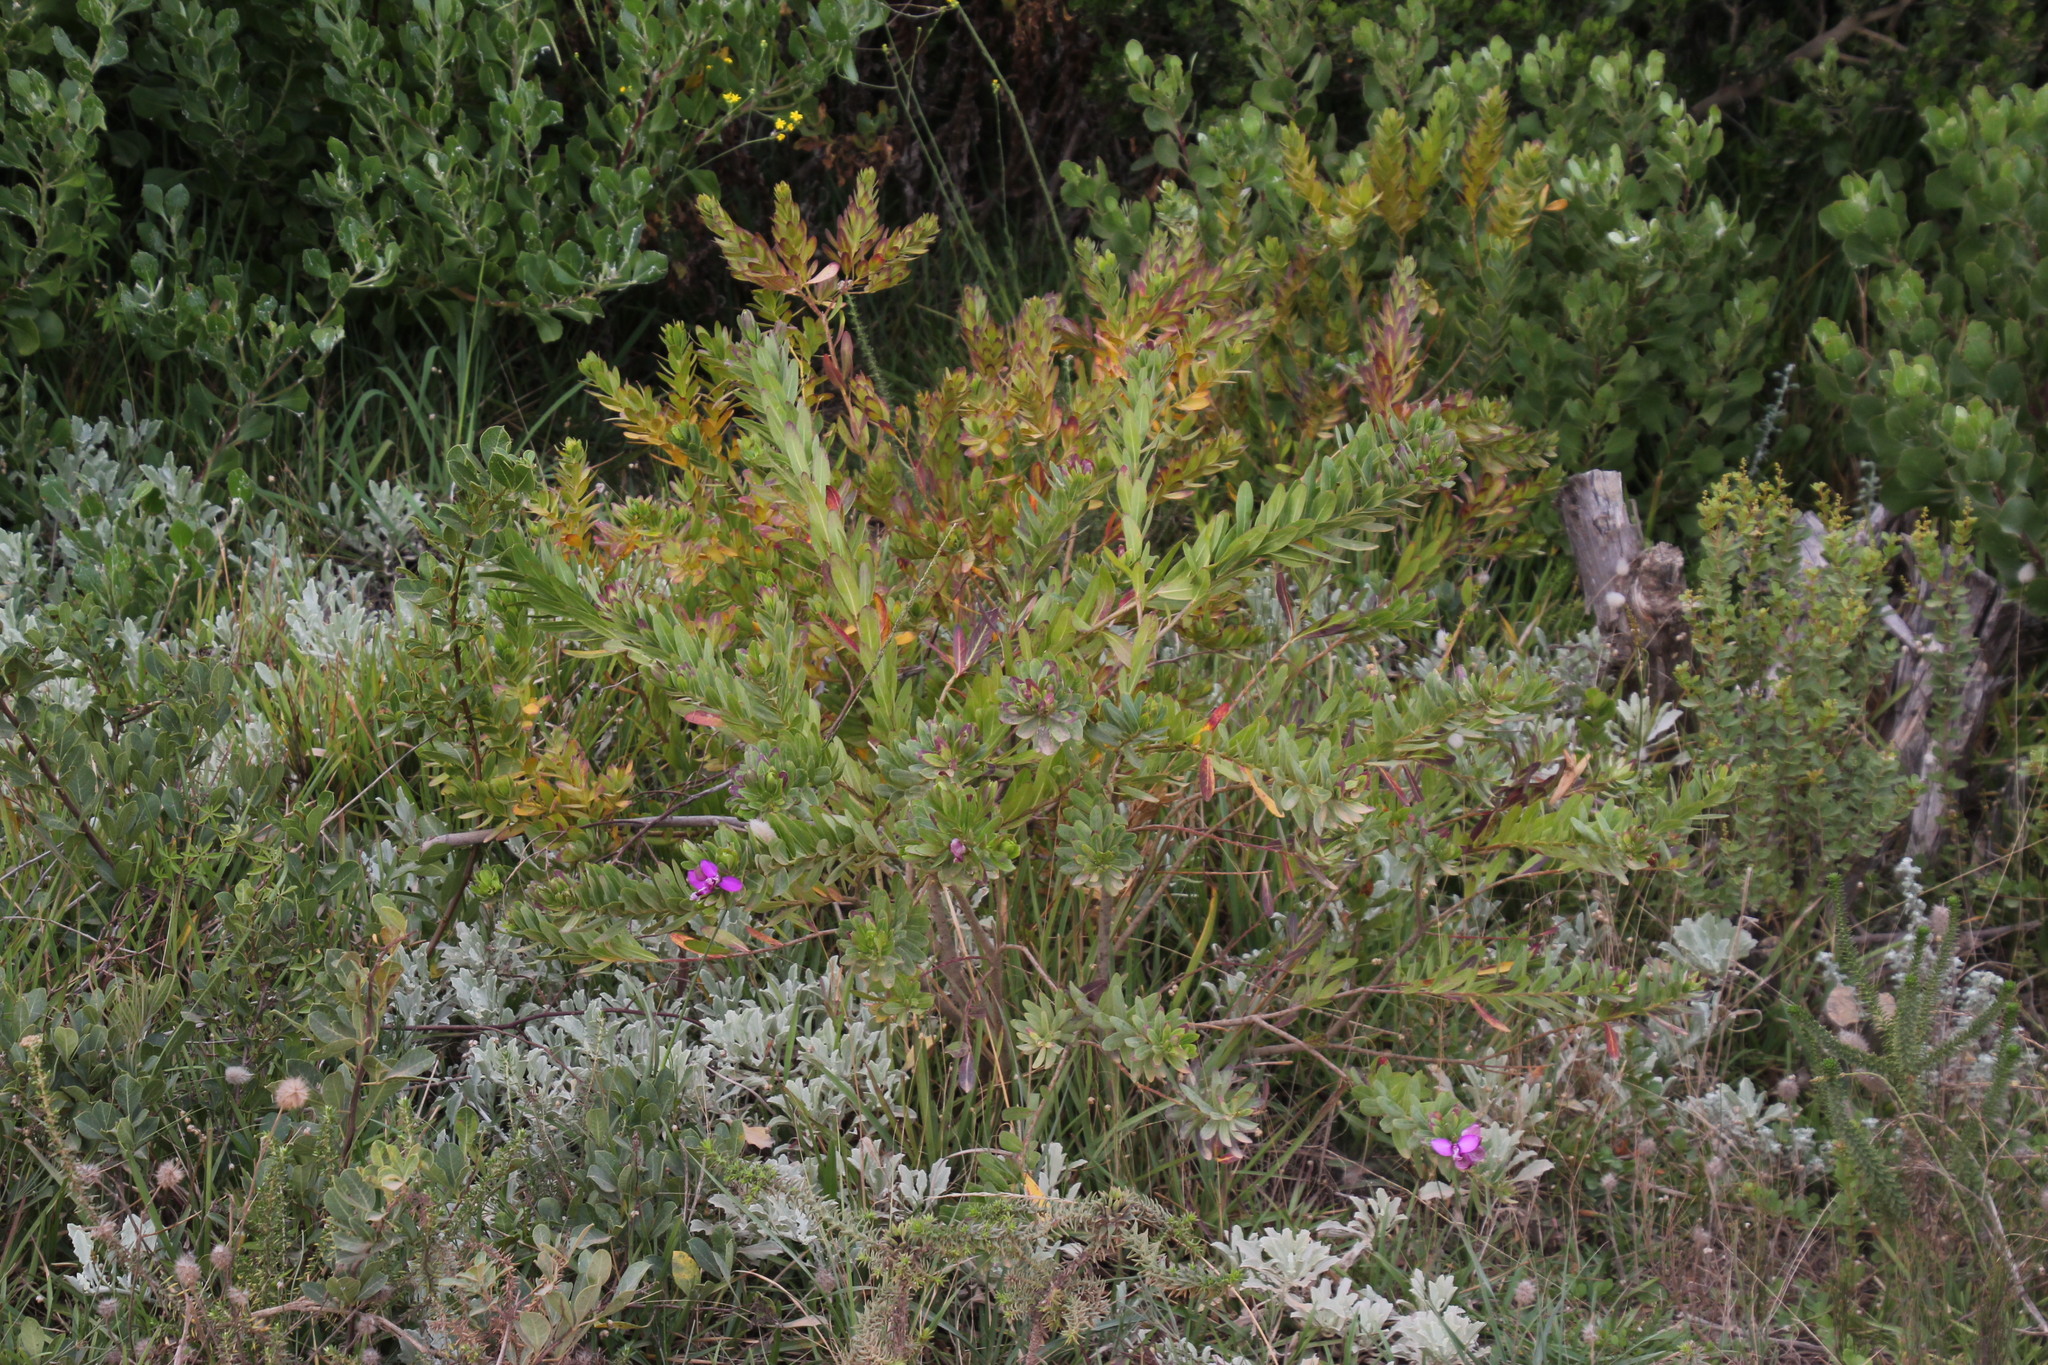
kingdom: Plantae
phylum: Tracheophyta
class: Magnoliopsida
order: Fabales
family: Polygalaceae
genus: Polygala
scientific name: Polygala myrtifolia
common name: Myrtle-leaf milkwort
